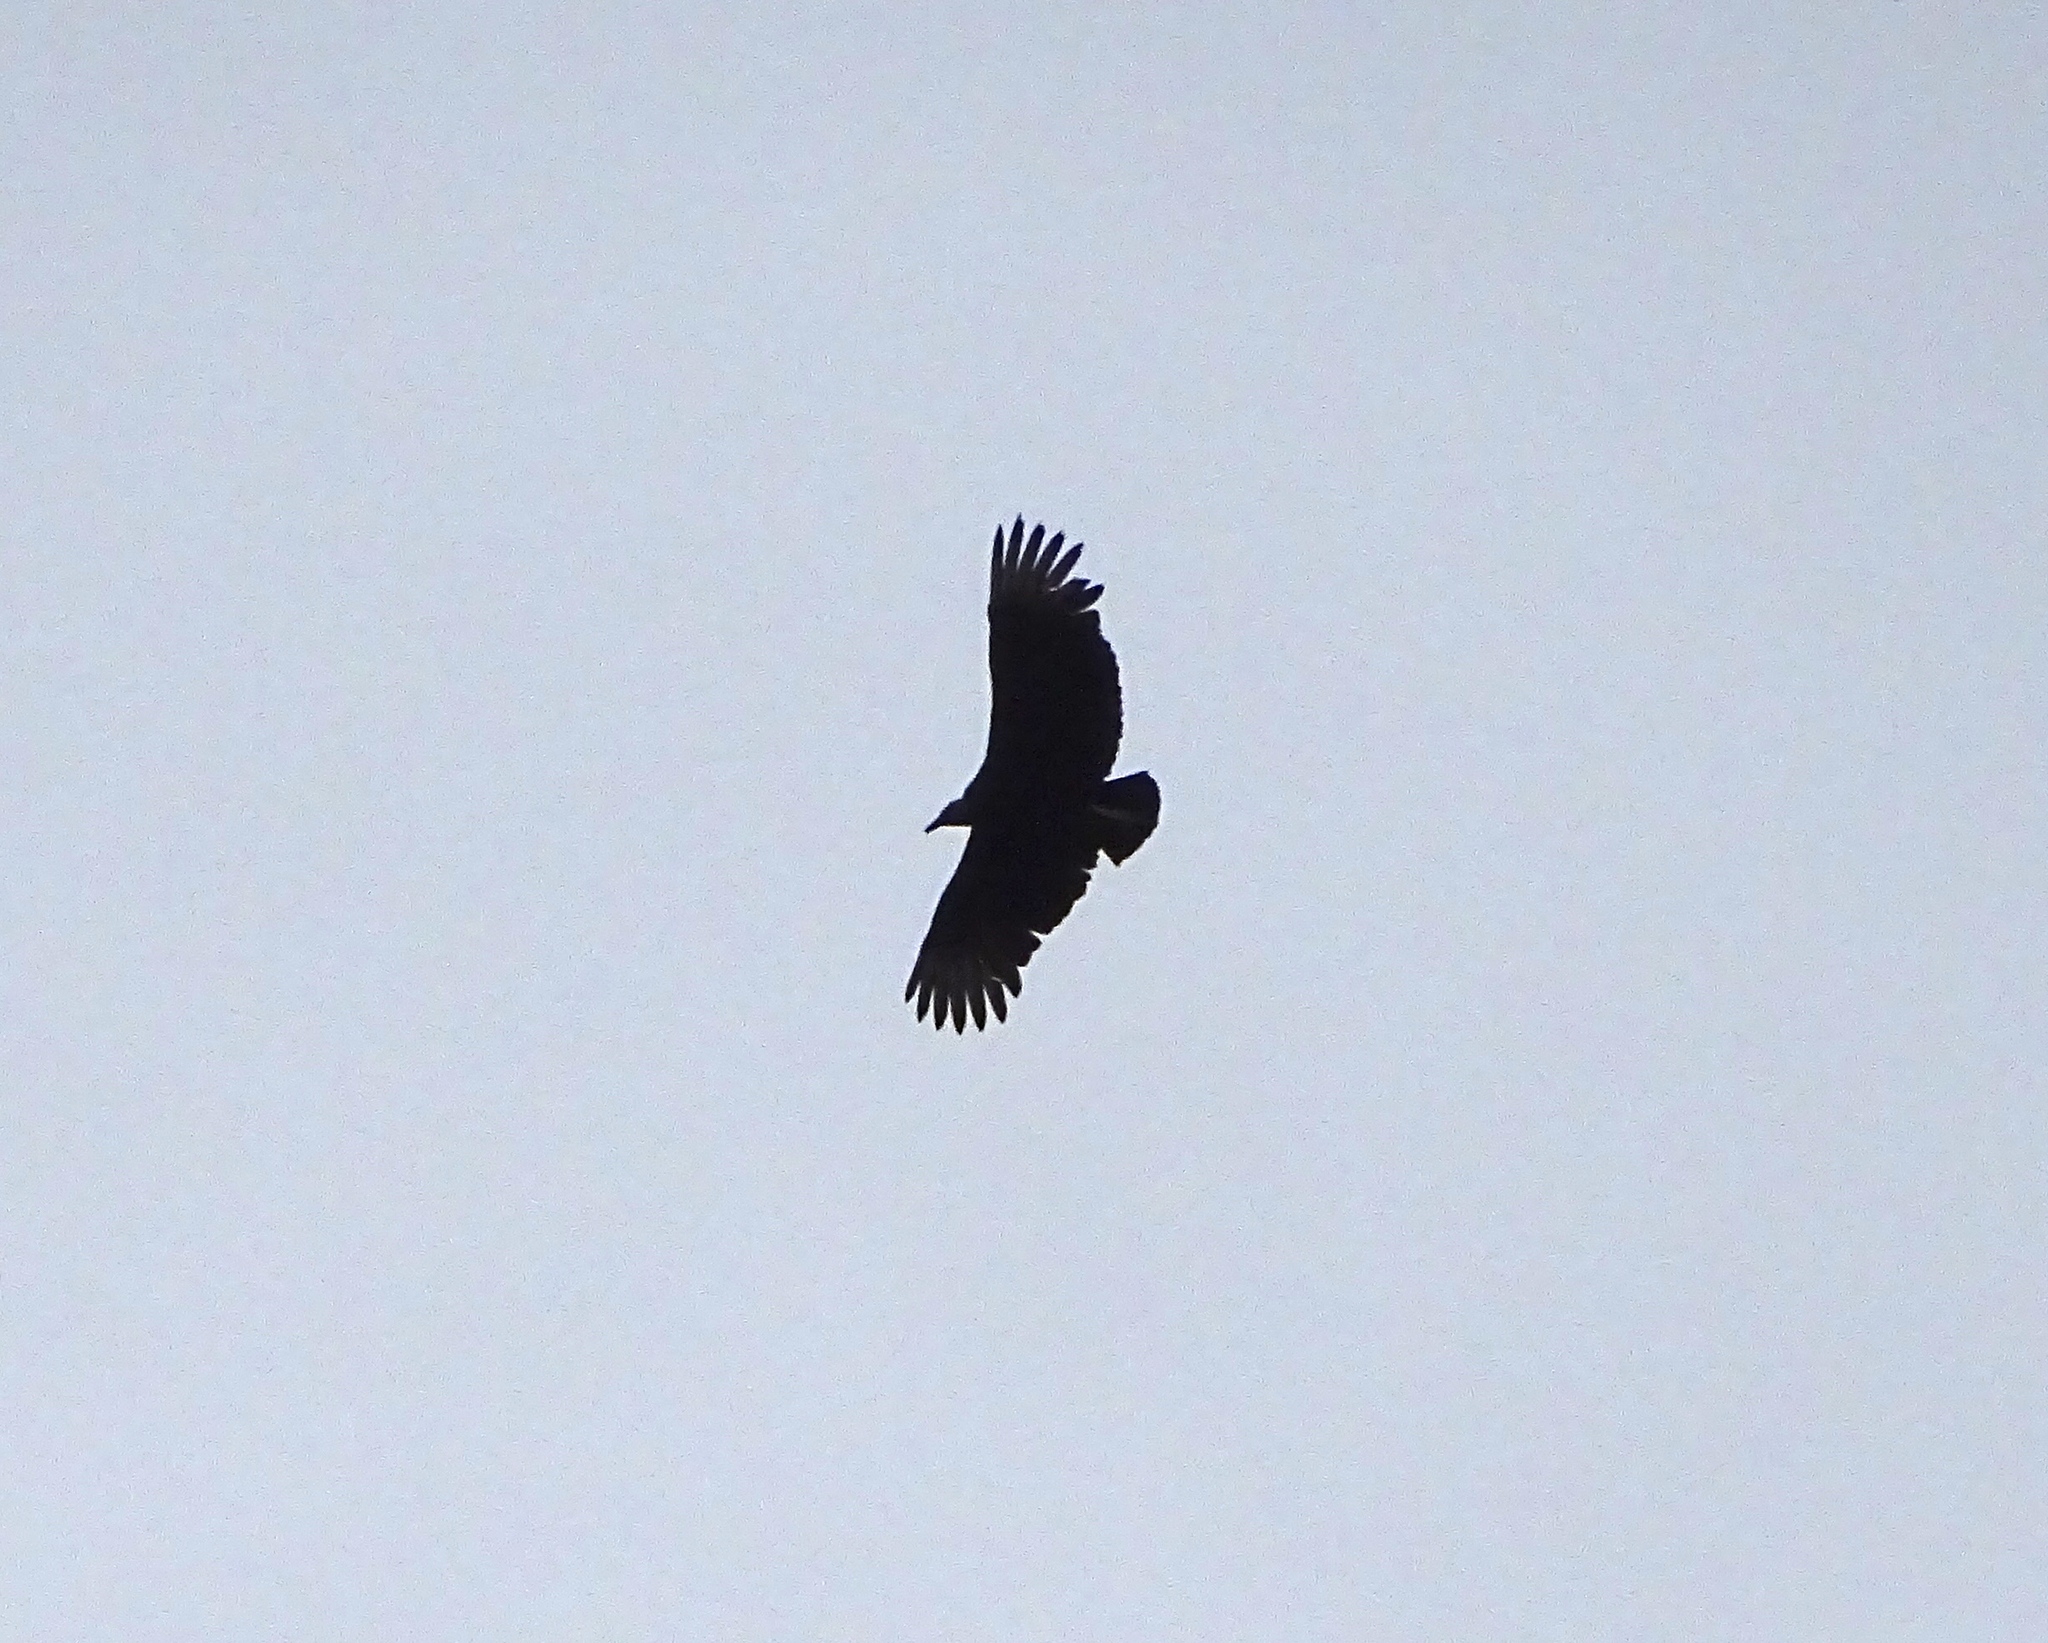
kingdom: Animalia
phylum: Chordata
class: Aves
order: Accipitriformes
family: Cathartidae
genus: Coragyps
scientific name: Coragyps atratus
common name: Black vulture
